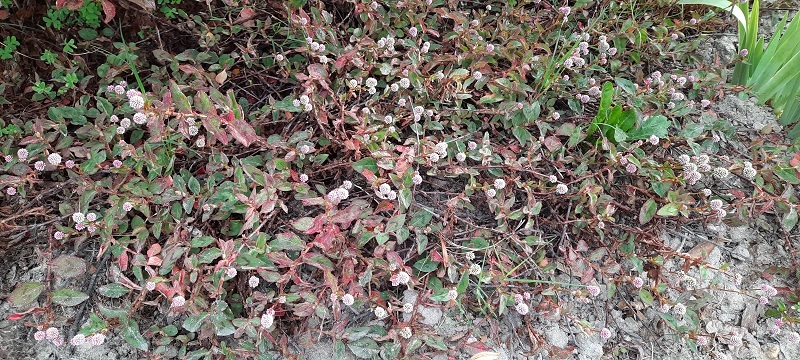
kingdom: Plantae
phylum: Tracheophyta
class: Magnoliopsida
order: Caryophyllales
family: Polygonaceae
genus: Persicaria
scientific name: Persicaria capitata
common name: Pinkhead smartweed
